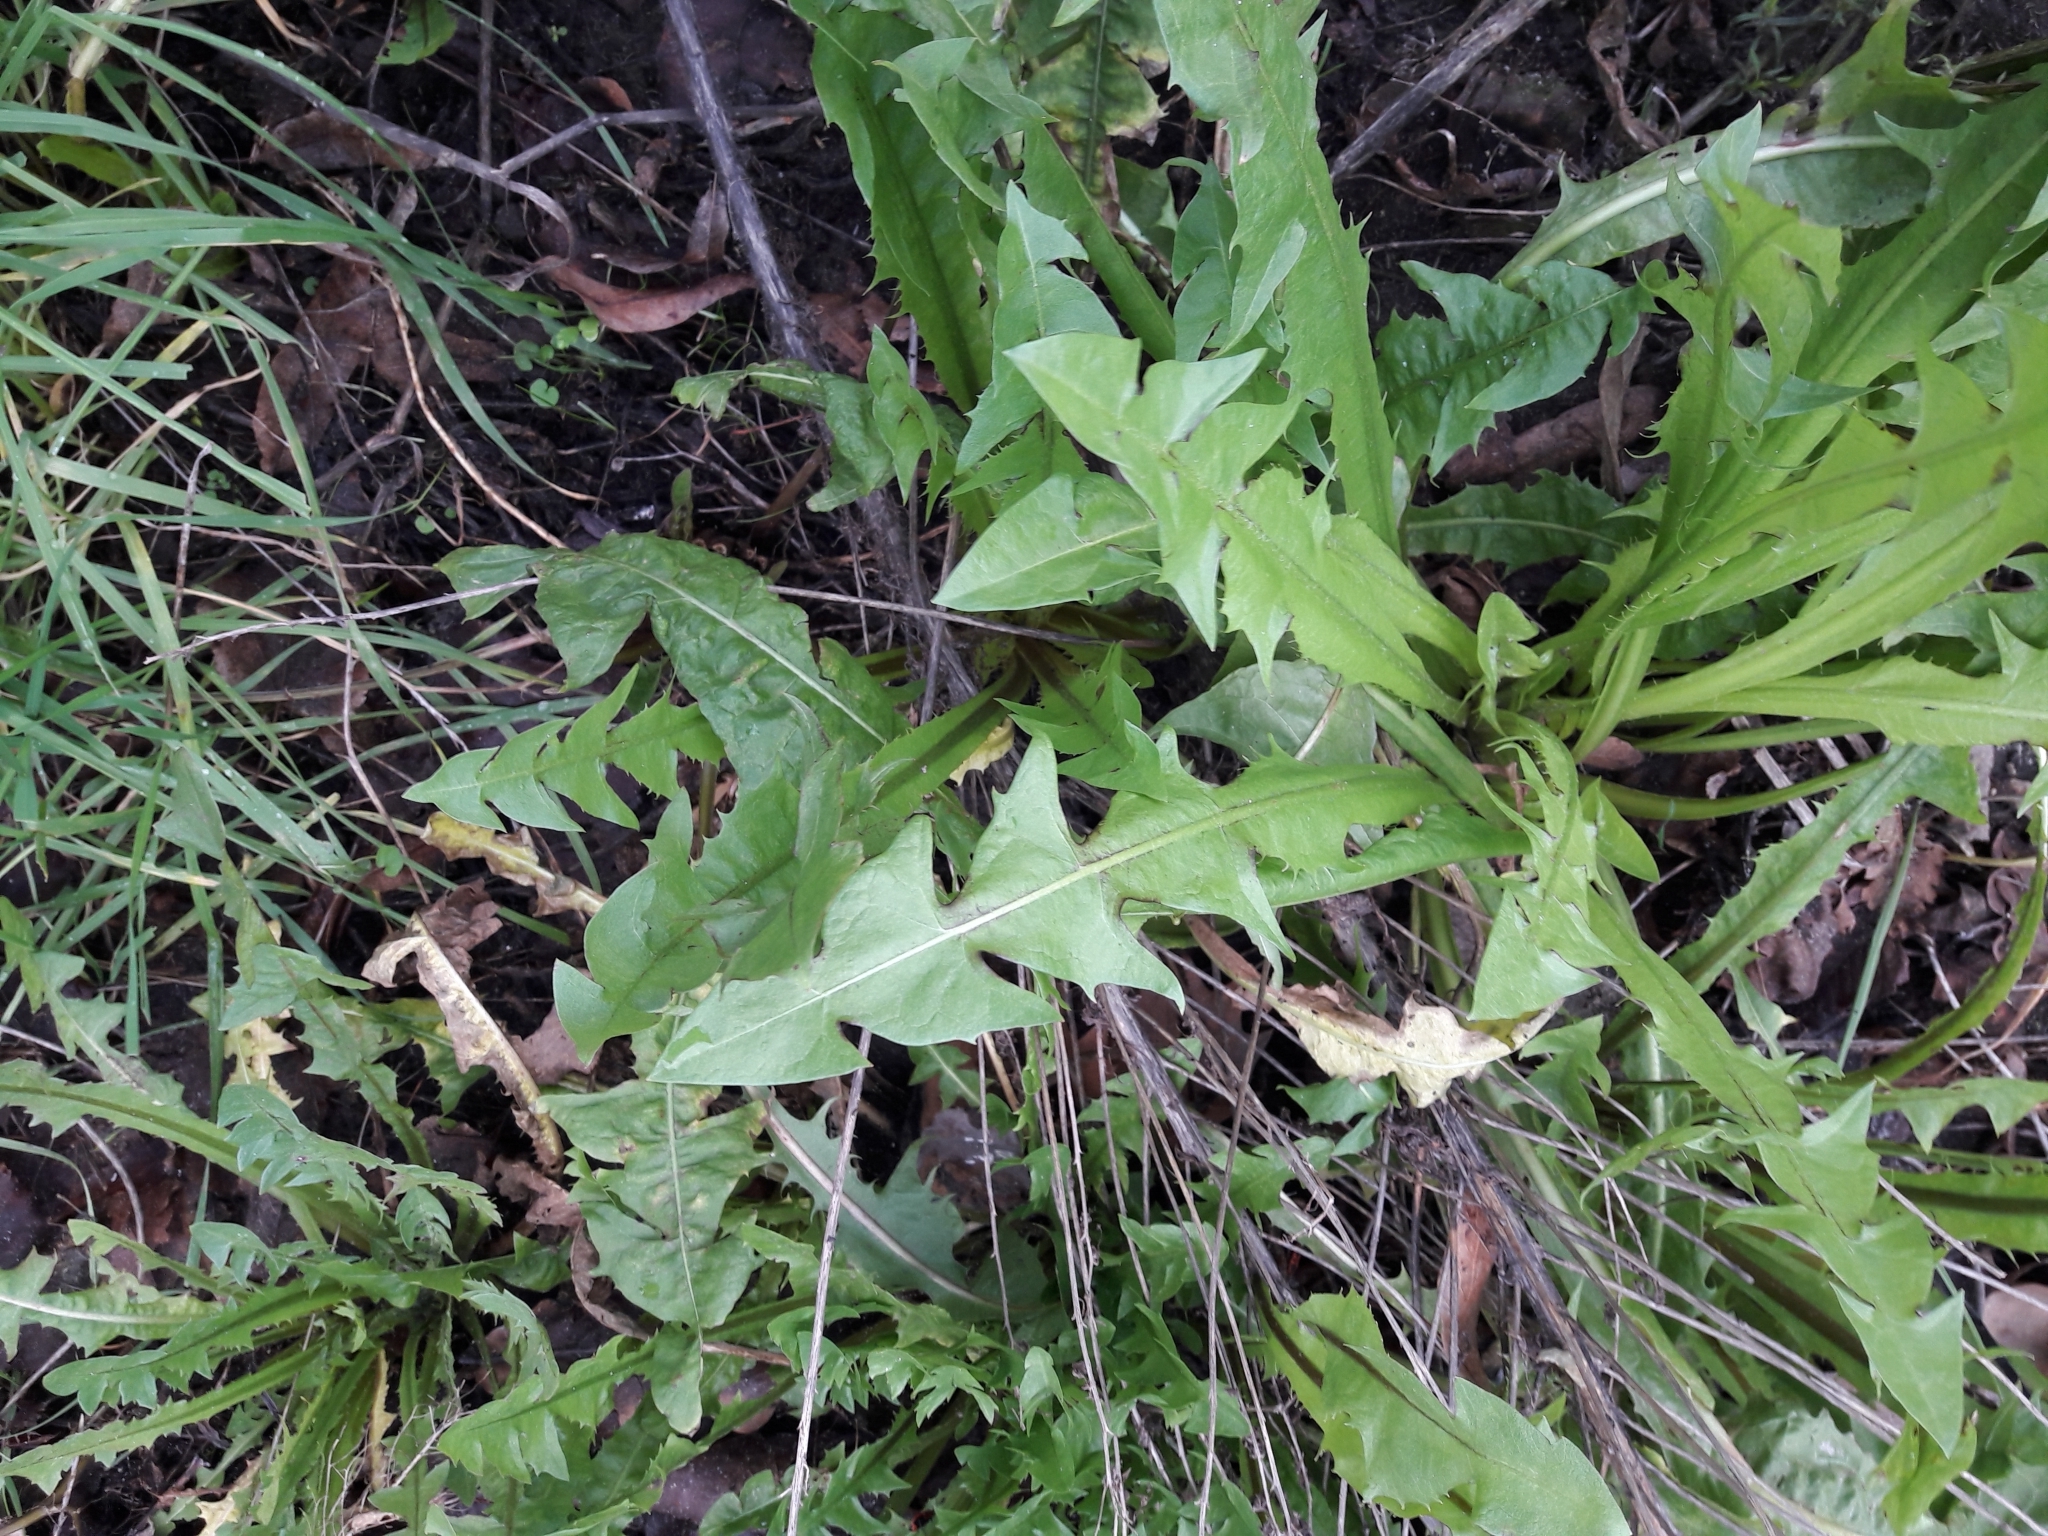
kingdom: Plantae
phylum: Tracheophyta
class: Magnoliopsida
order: Asterales
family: Asteraceae
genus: Taraxacum
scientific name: Taraxacum officinale
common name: Common dandelion
